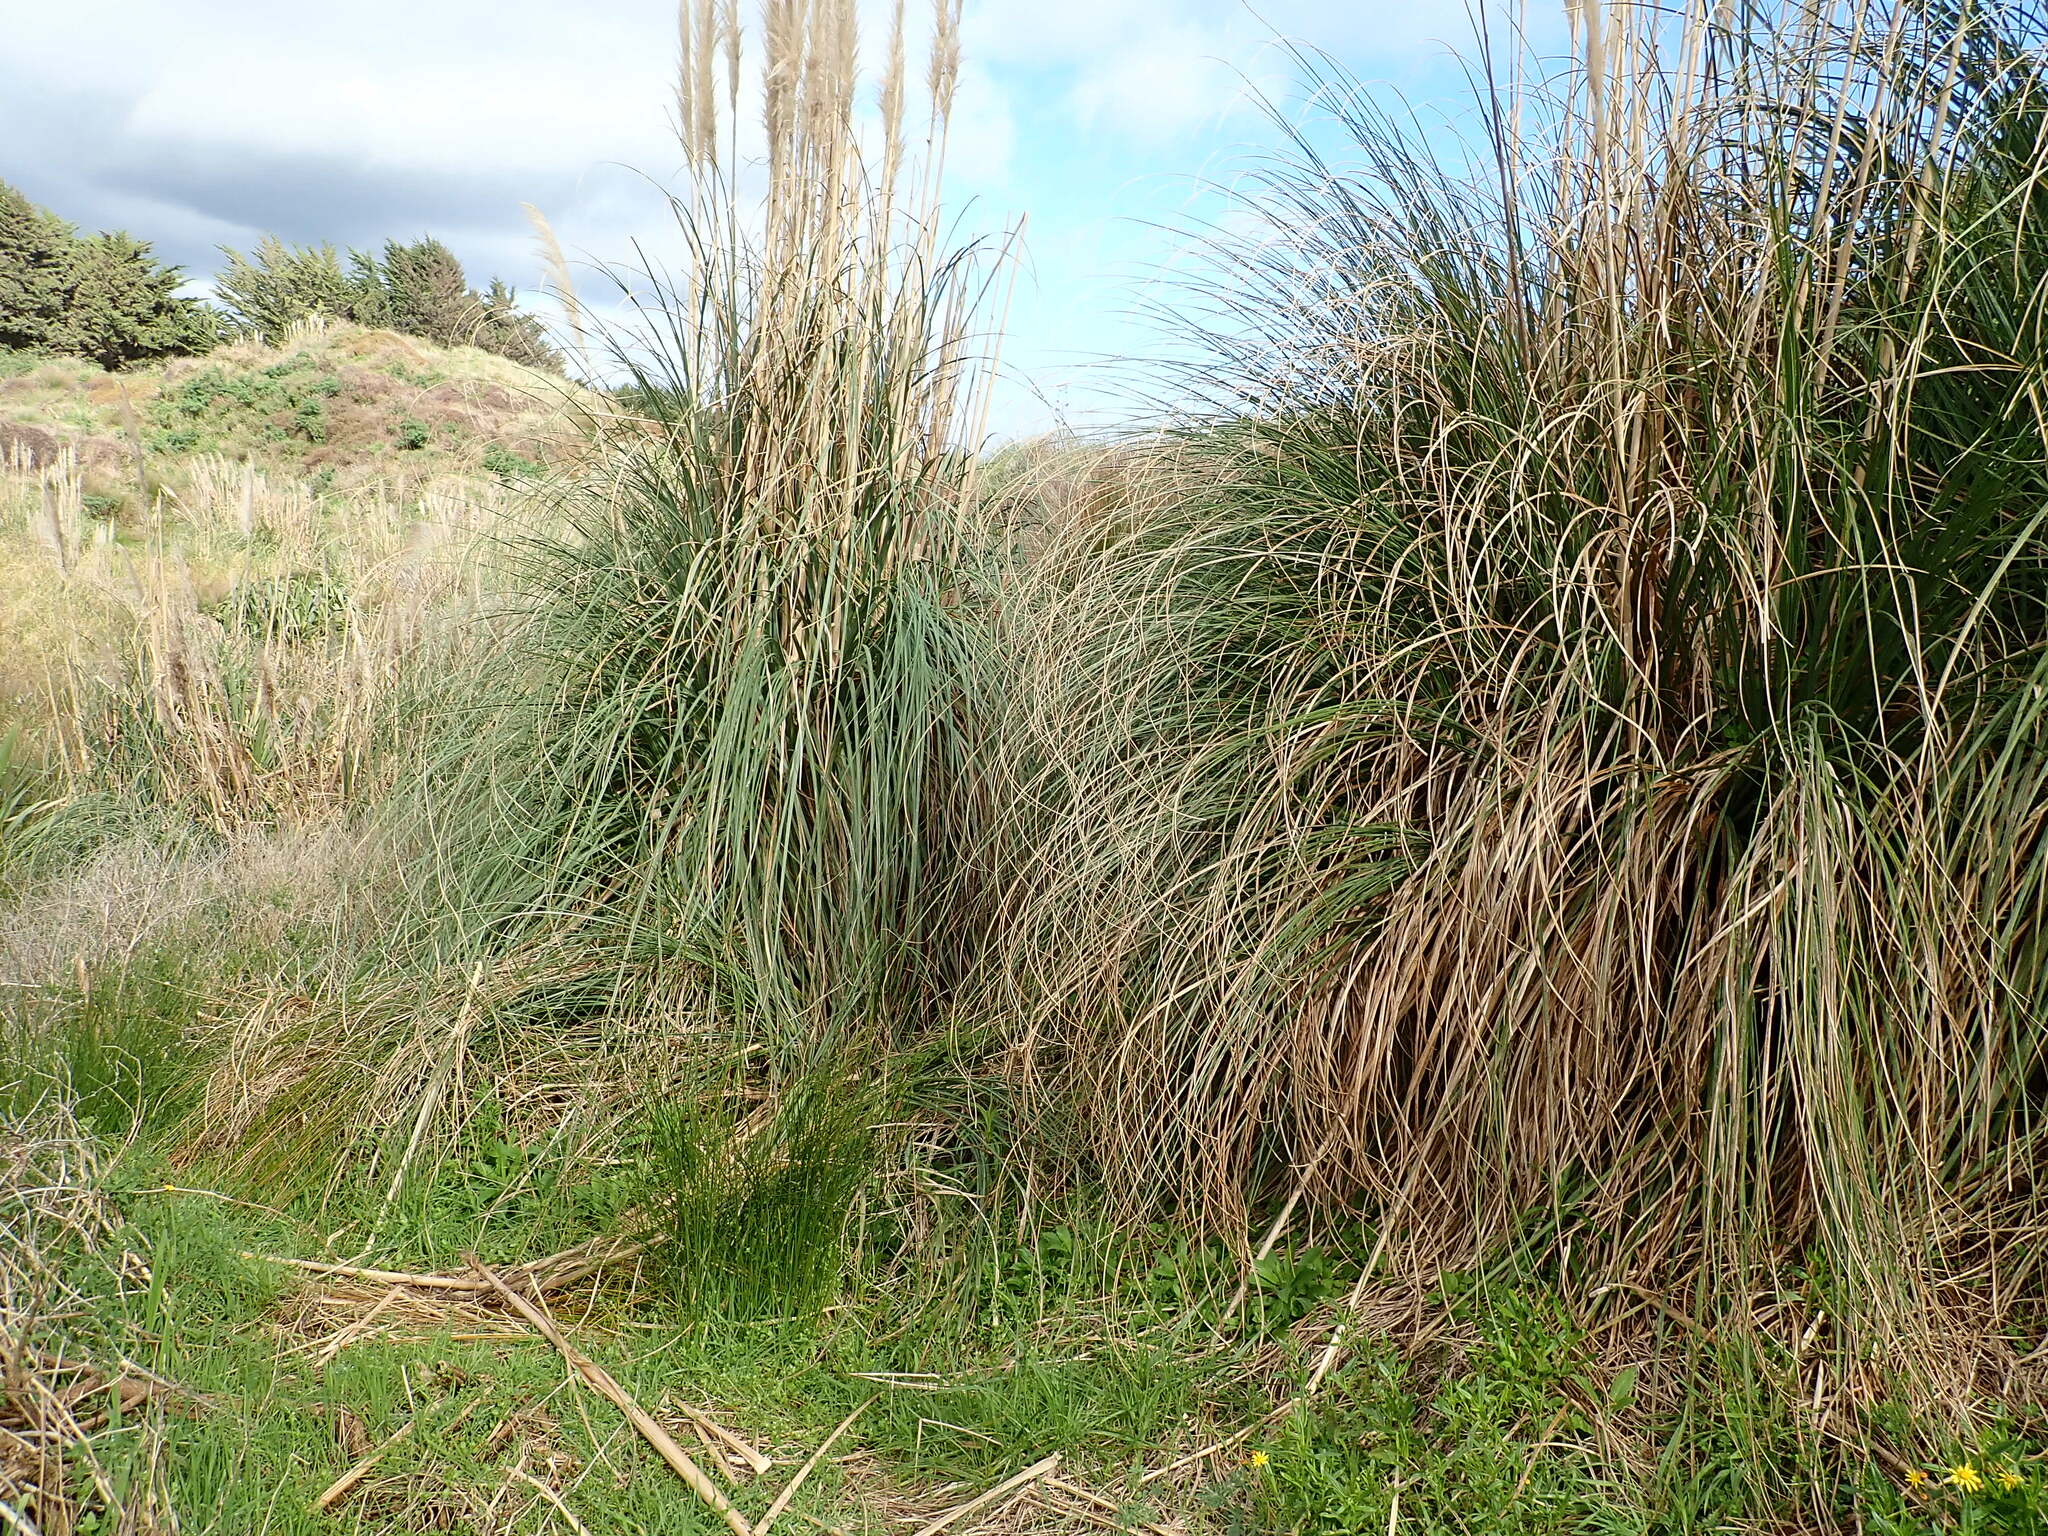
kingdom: Plantae
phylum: Tracheophyta
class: Liliopsida
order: Poales
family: Poaceae
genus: Cortaderia
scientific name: Cortaderia selloana
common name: Uruguayan pampas grass
